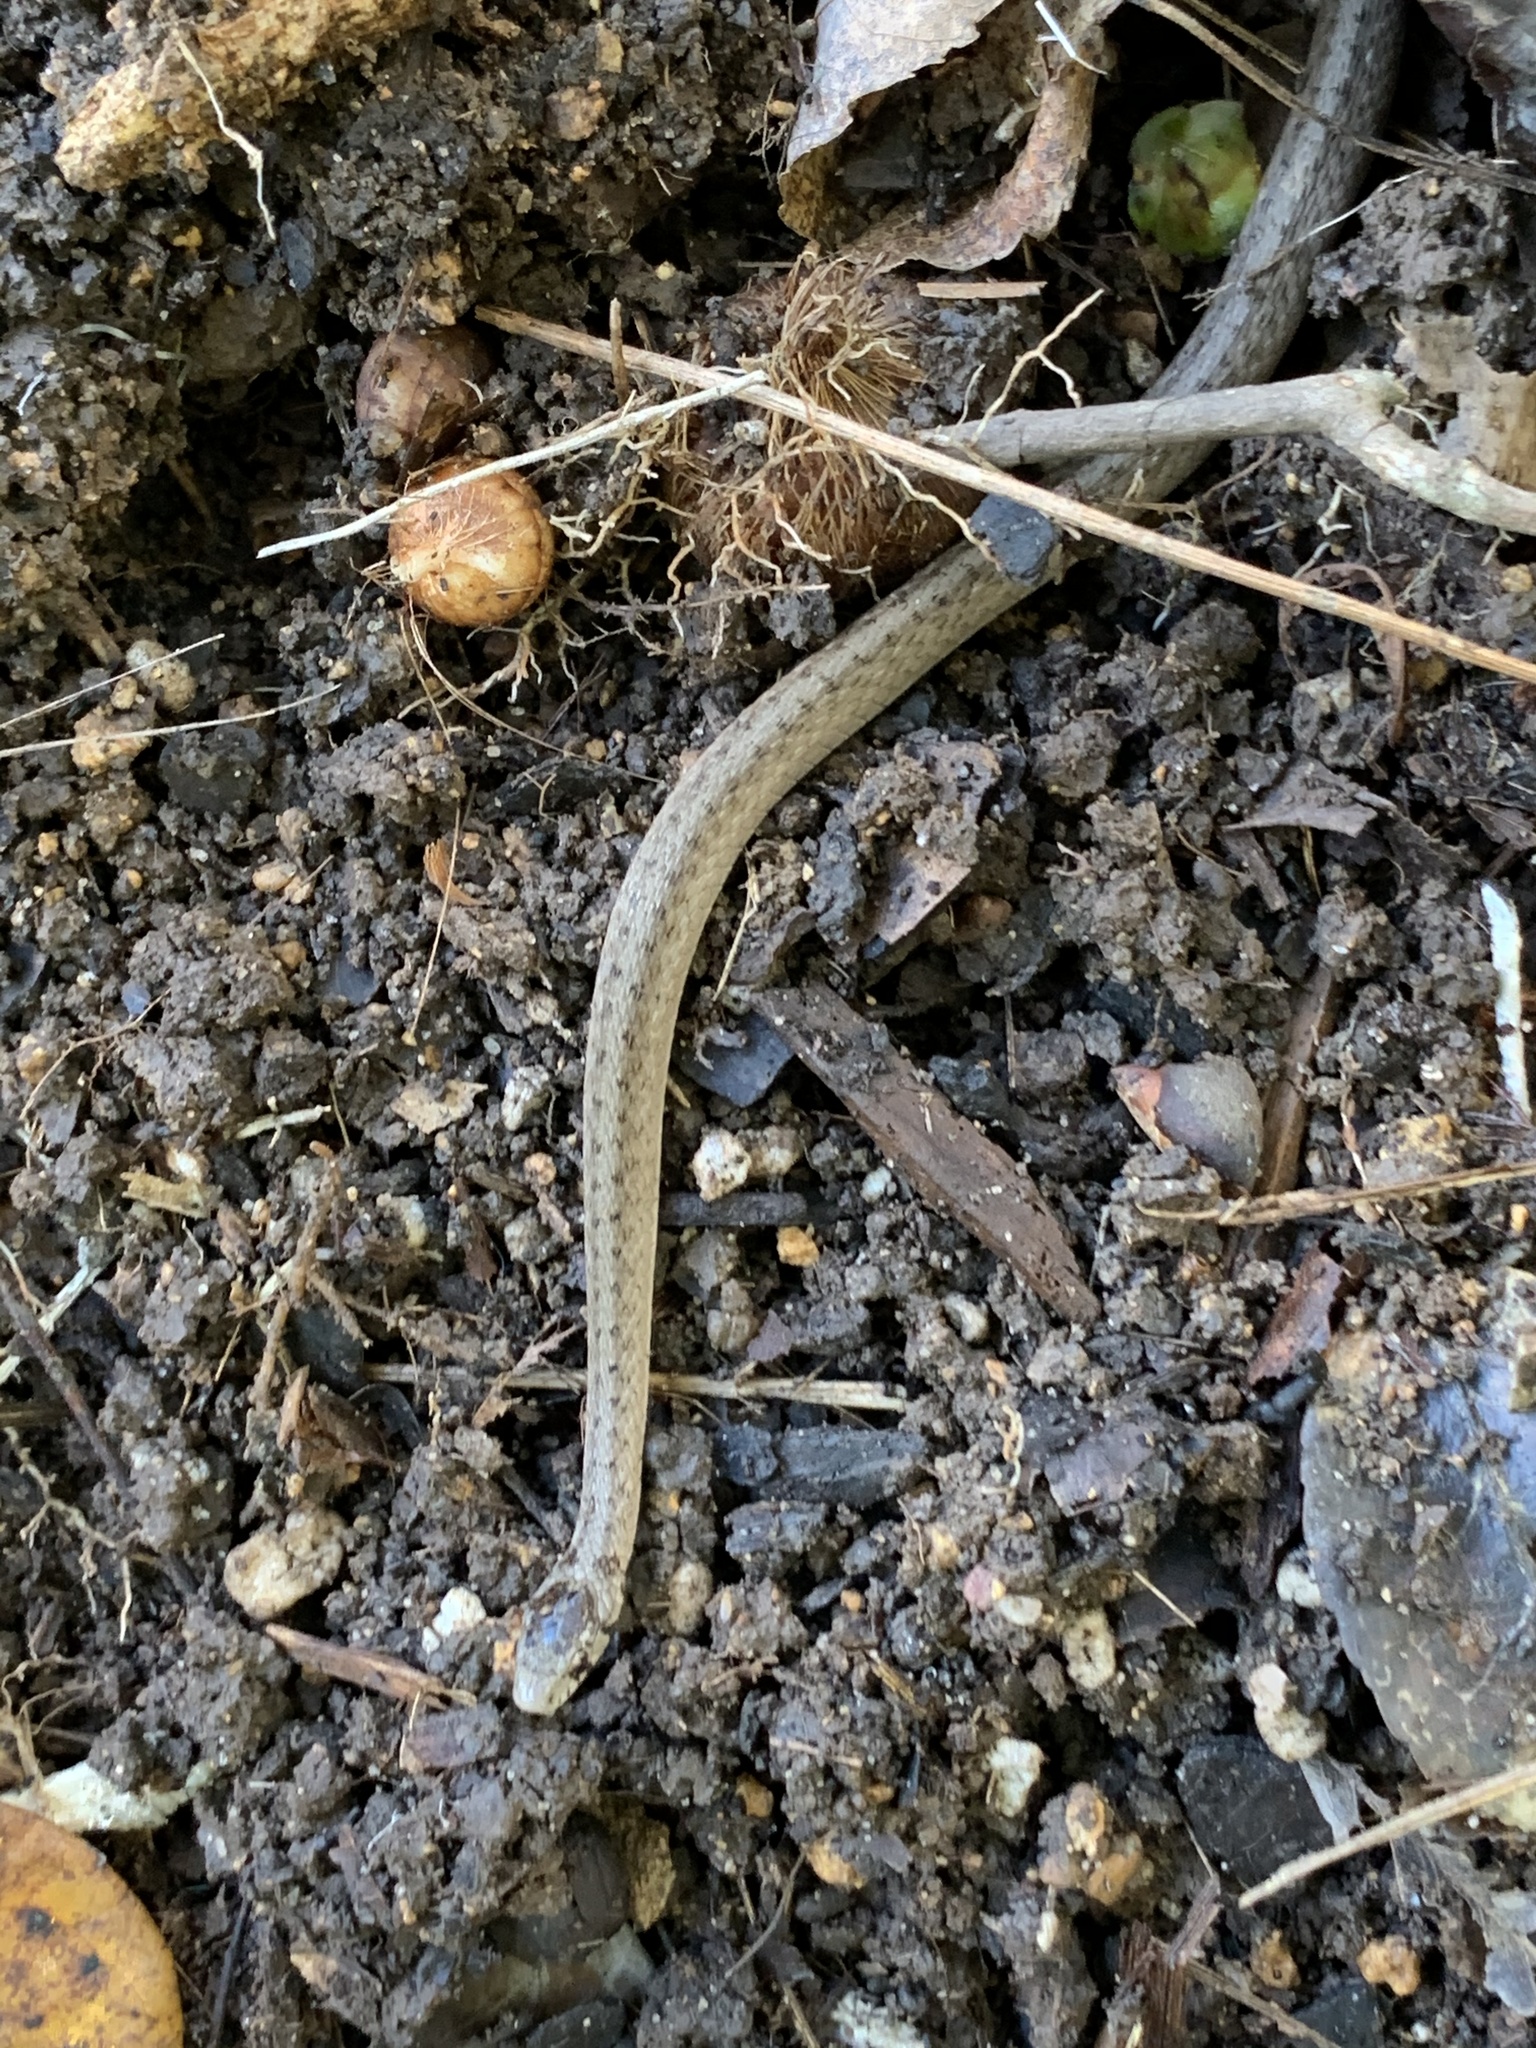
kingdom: Animalia
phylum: Chordata
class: Squamata
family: Colubridae
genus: Storeria
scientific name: Storeria dekayi
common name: (dekay’s) brown snake
